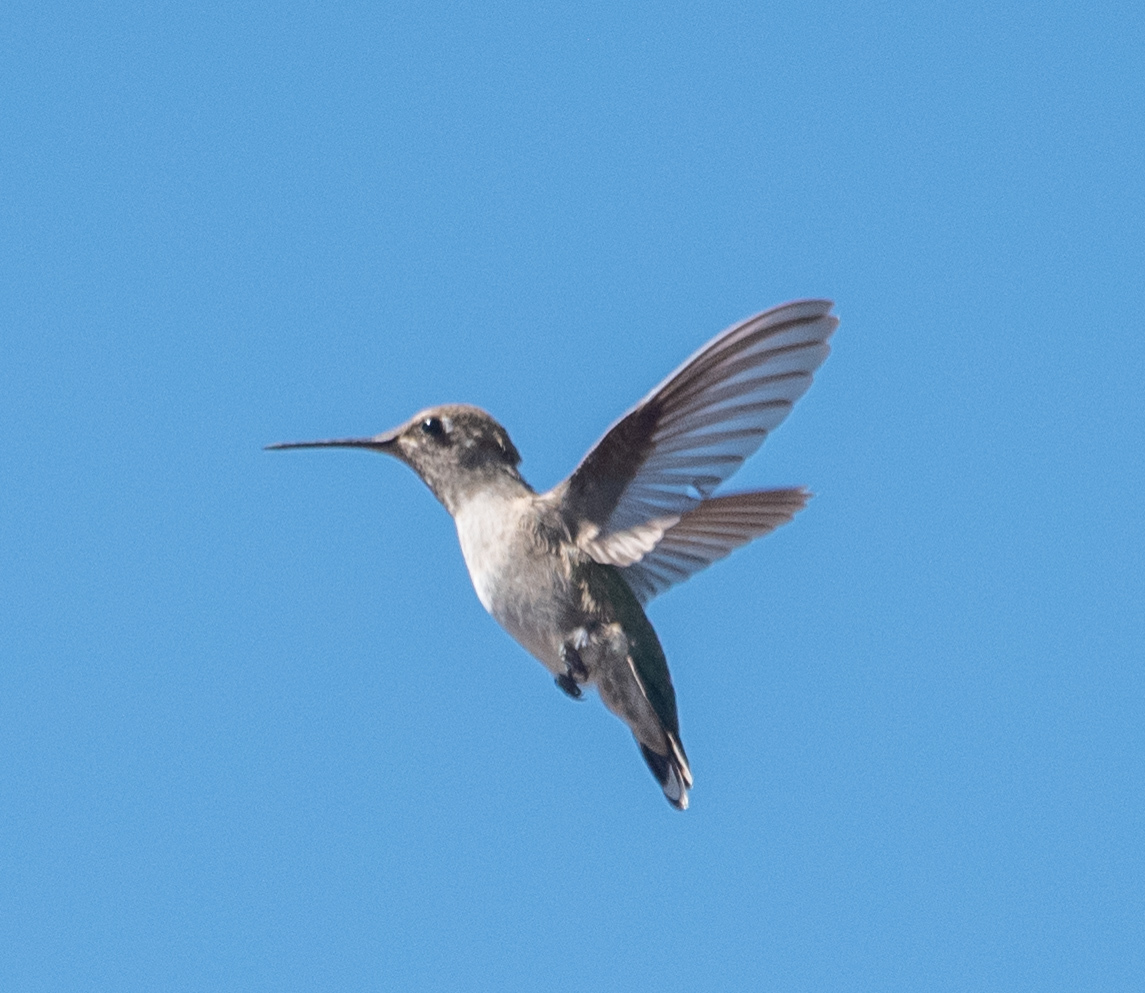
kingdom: Animalia
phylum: Chordata
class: Aves
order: Apodiformes
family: Trochilidae
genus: Calypte
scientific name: Calypte anna
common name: Anna's hummingbird
